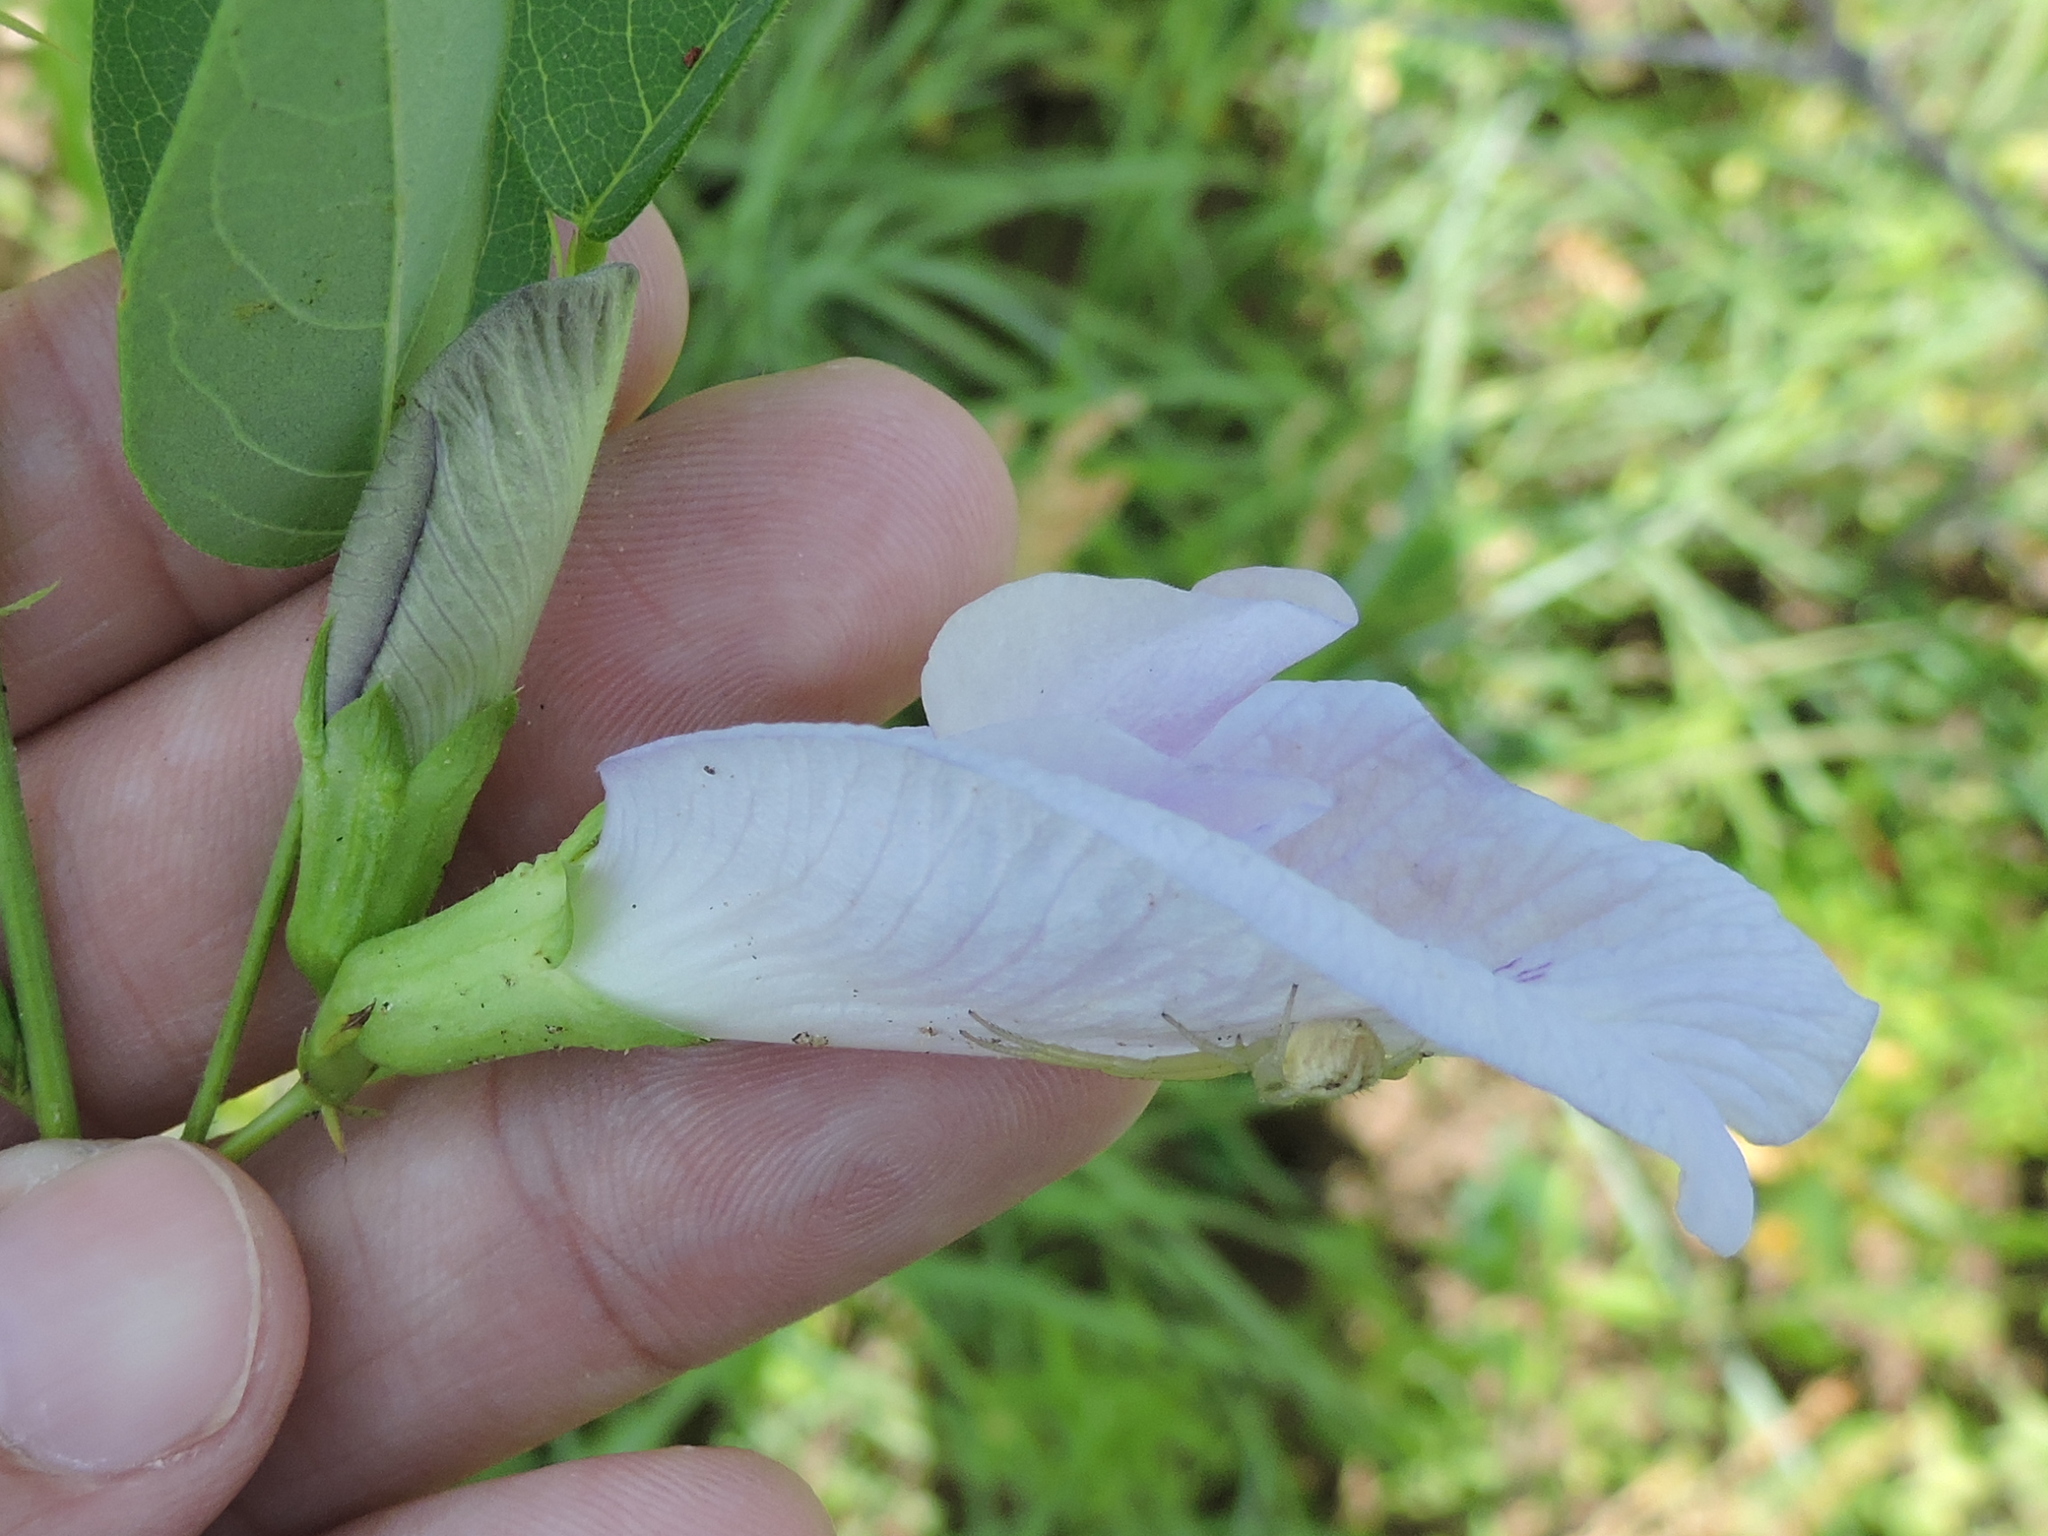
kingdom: Plantae
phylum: Tracheophyta
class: Magnoliopsida
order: Fabales
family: Fabaceae
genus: Clitoria
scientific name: Clitoria mariana
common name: Butterfly-pea
